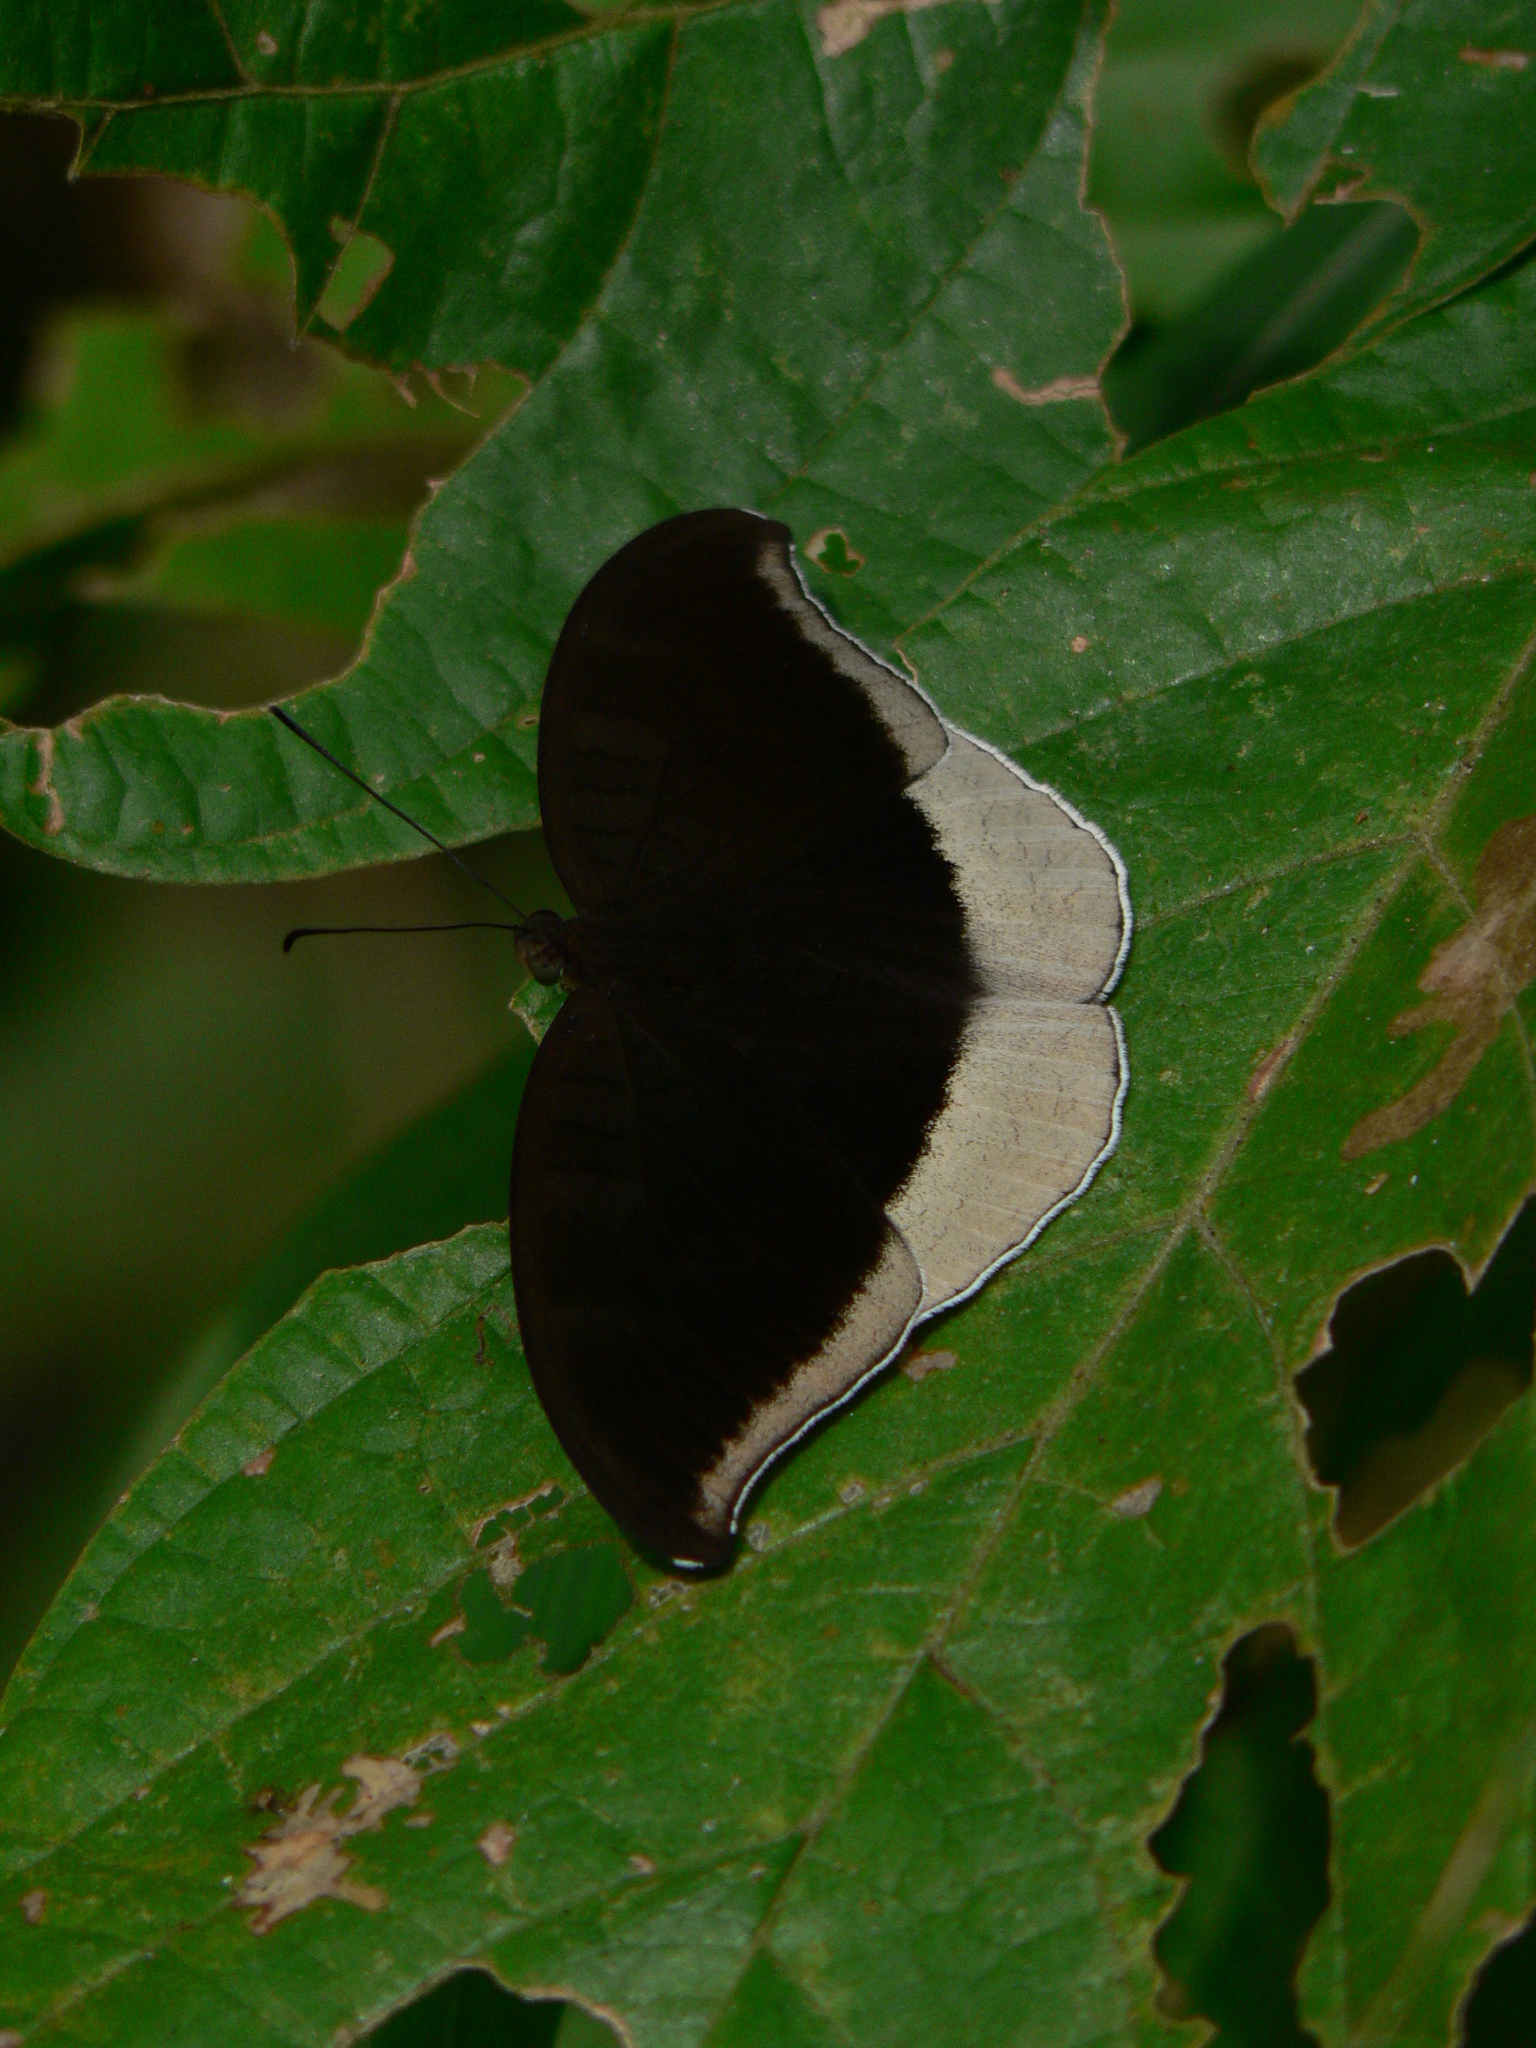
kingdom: Animalia
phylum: Arthropoda
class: Insecta
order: Lepidoptera
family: Nymphalidae
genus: Tanaecia
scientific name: Tanaecia lepidea
